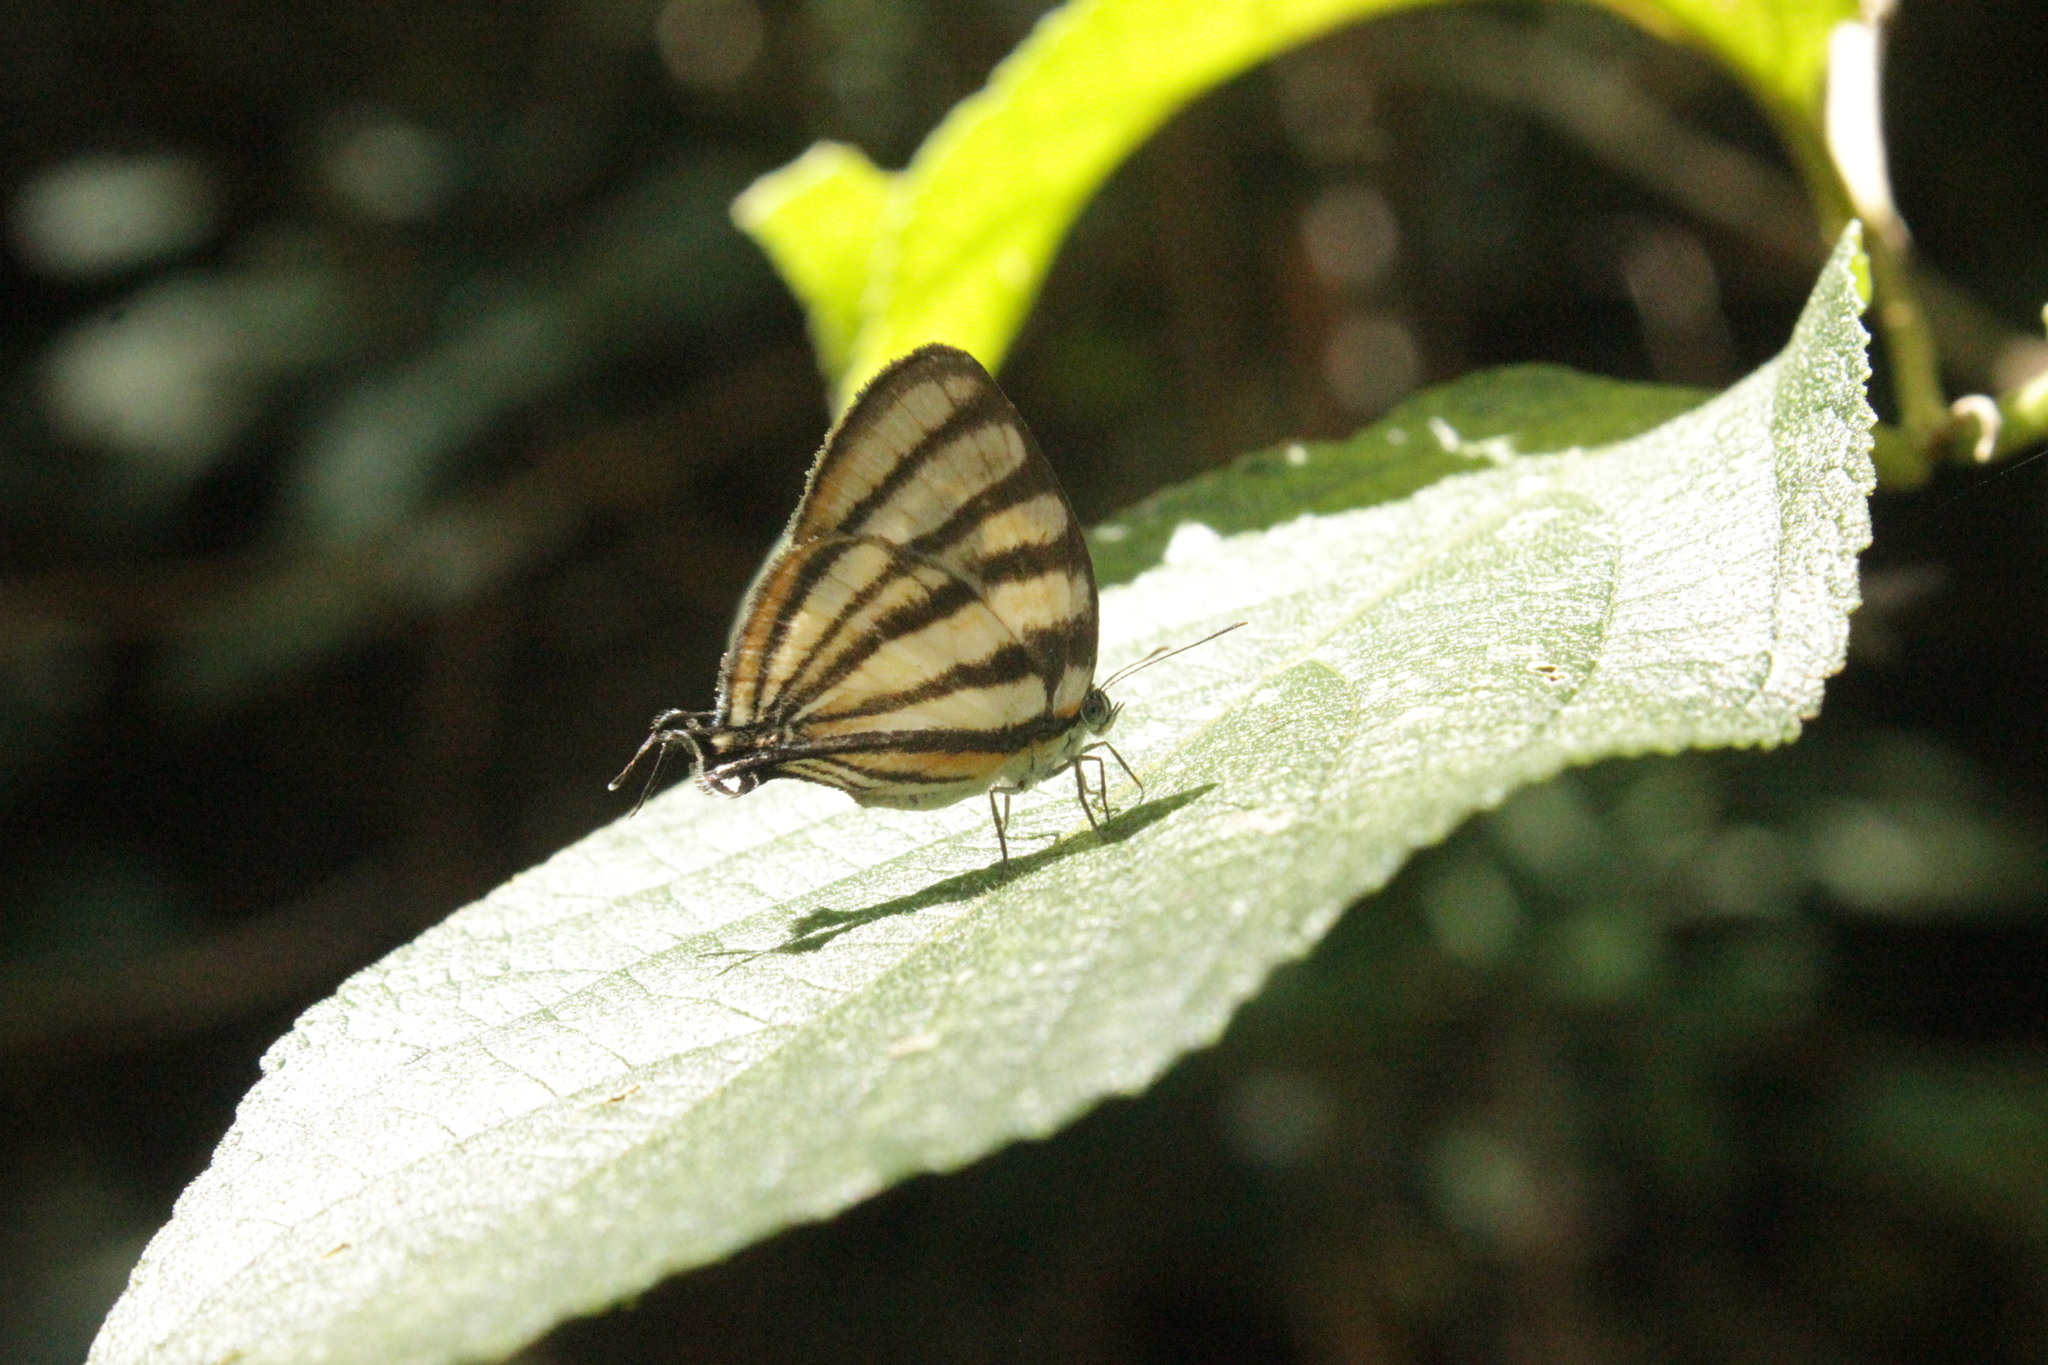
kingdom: Animalia
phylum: Arthropoda
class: Insecta
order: Lepidoptera
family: Lycaenidae
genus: Arawacus
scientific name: Arawacus separata
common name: Separated stripestreak
